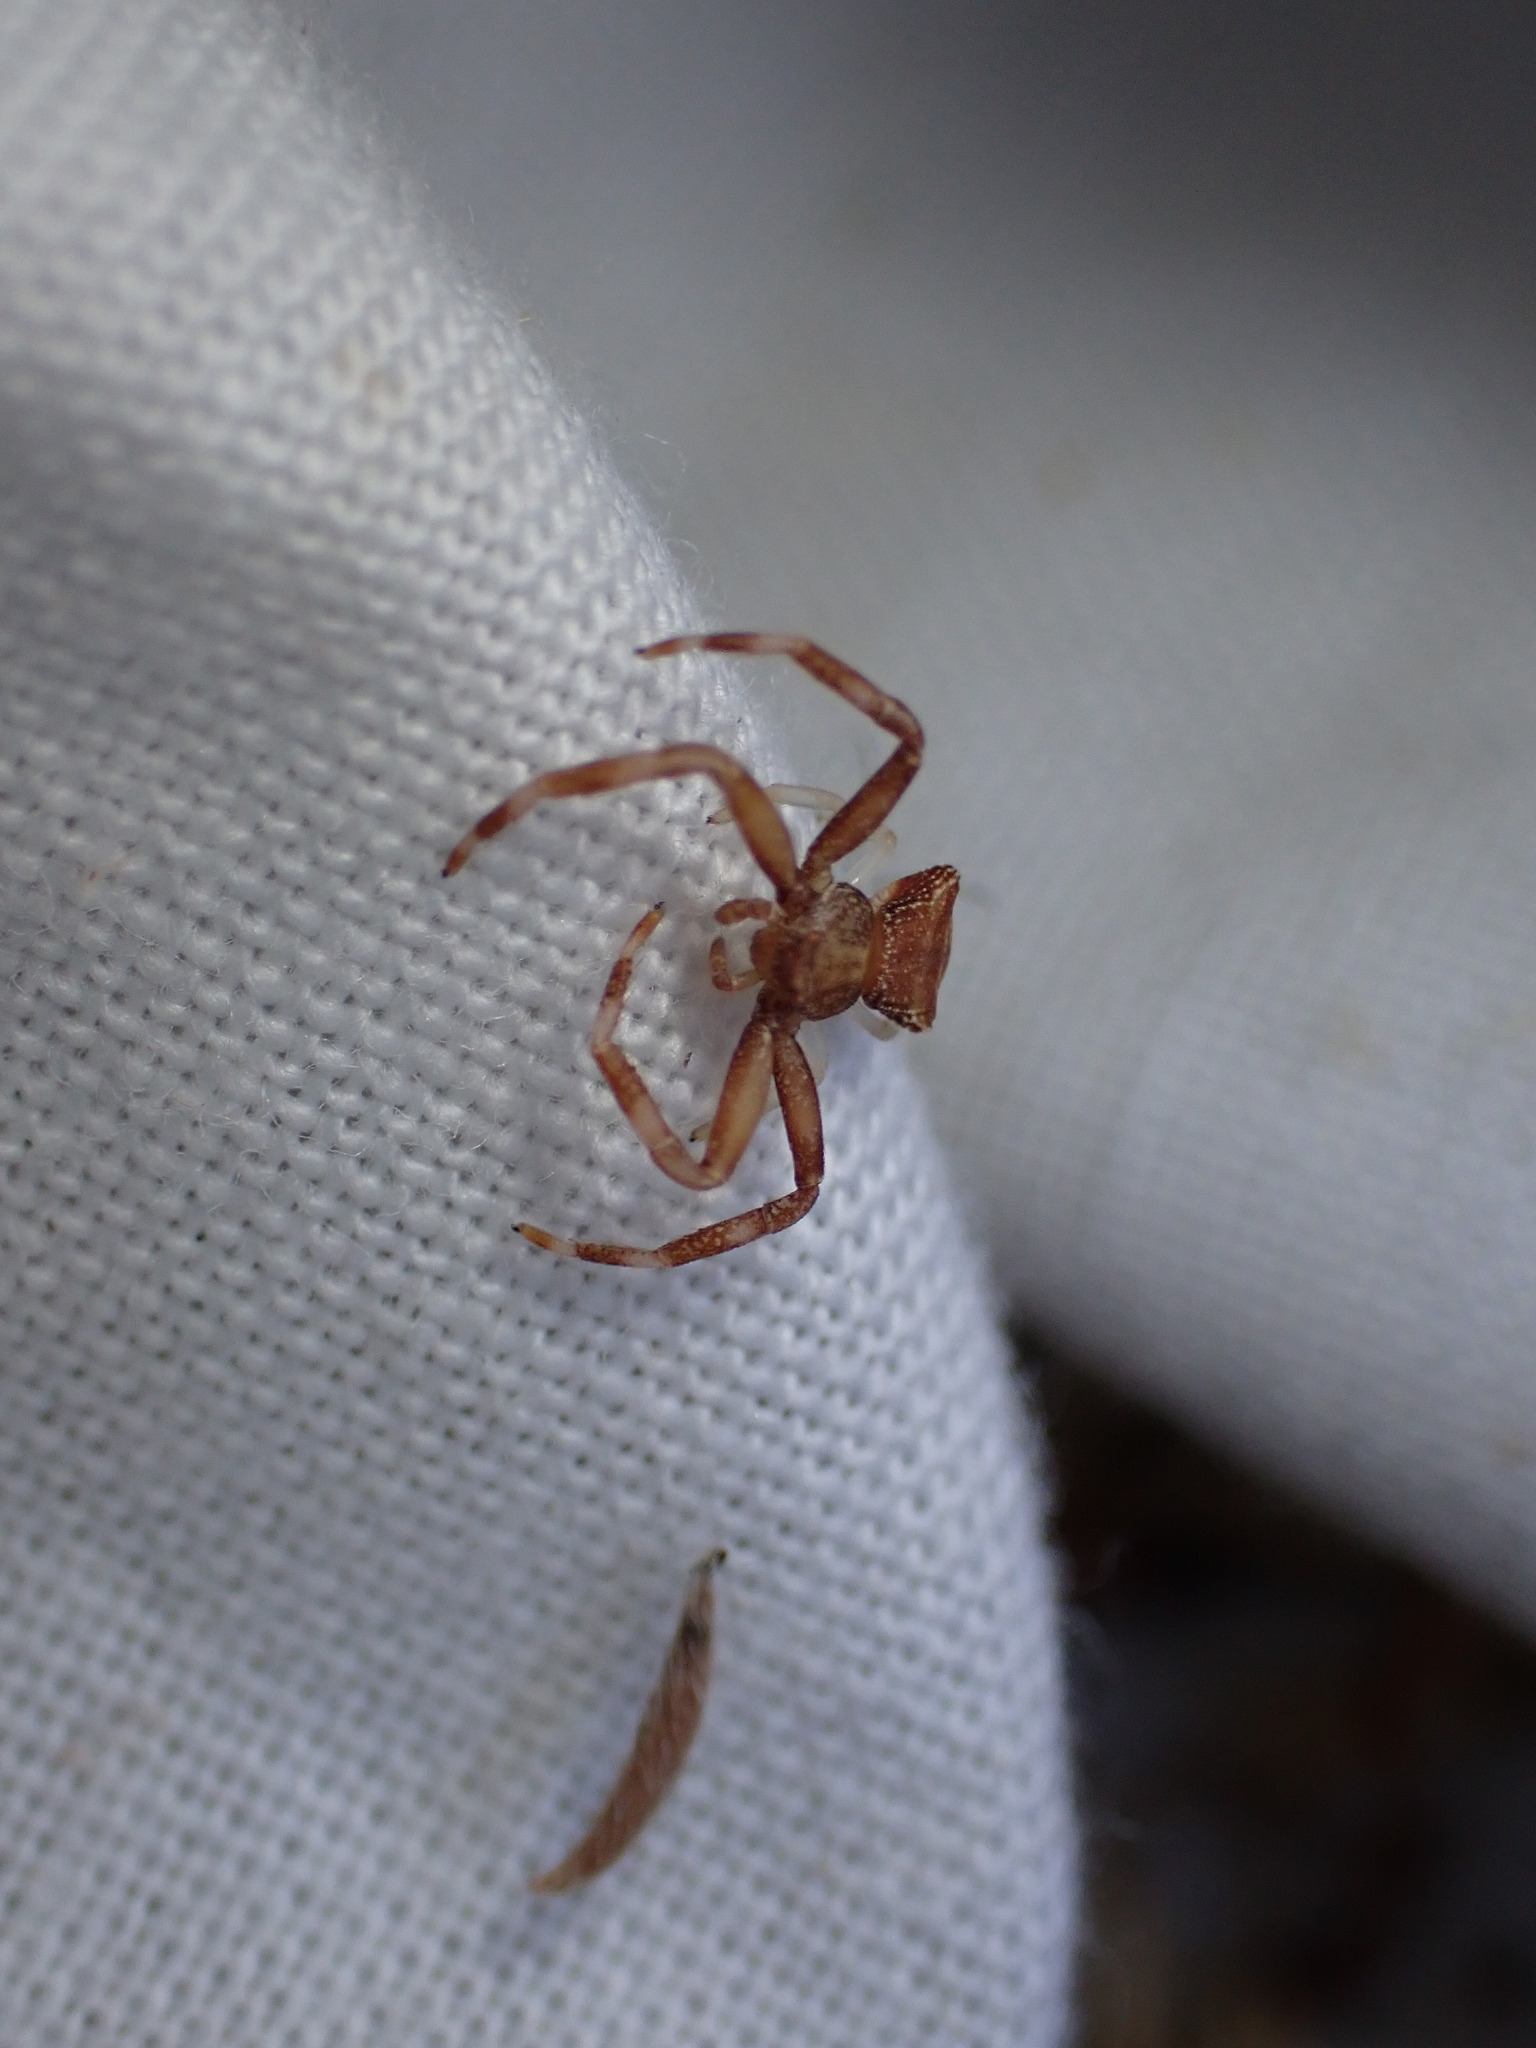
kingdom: Animalia
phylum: Arthropoda
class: Arachnida
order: Araneae
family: Thomisidae
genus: Pistius
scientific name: Pistius truncatus
